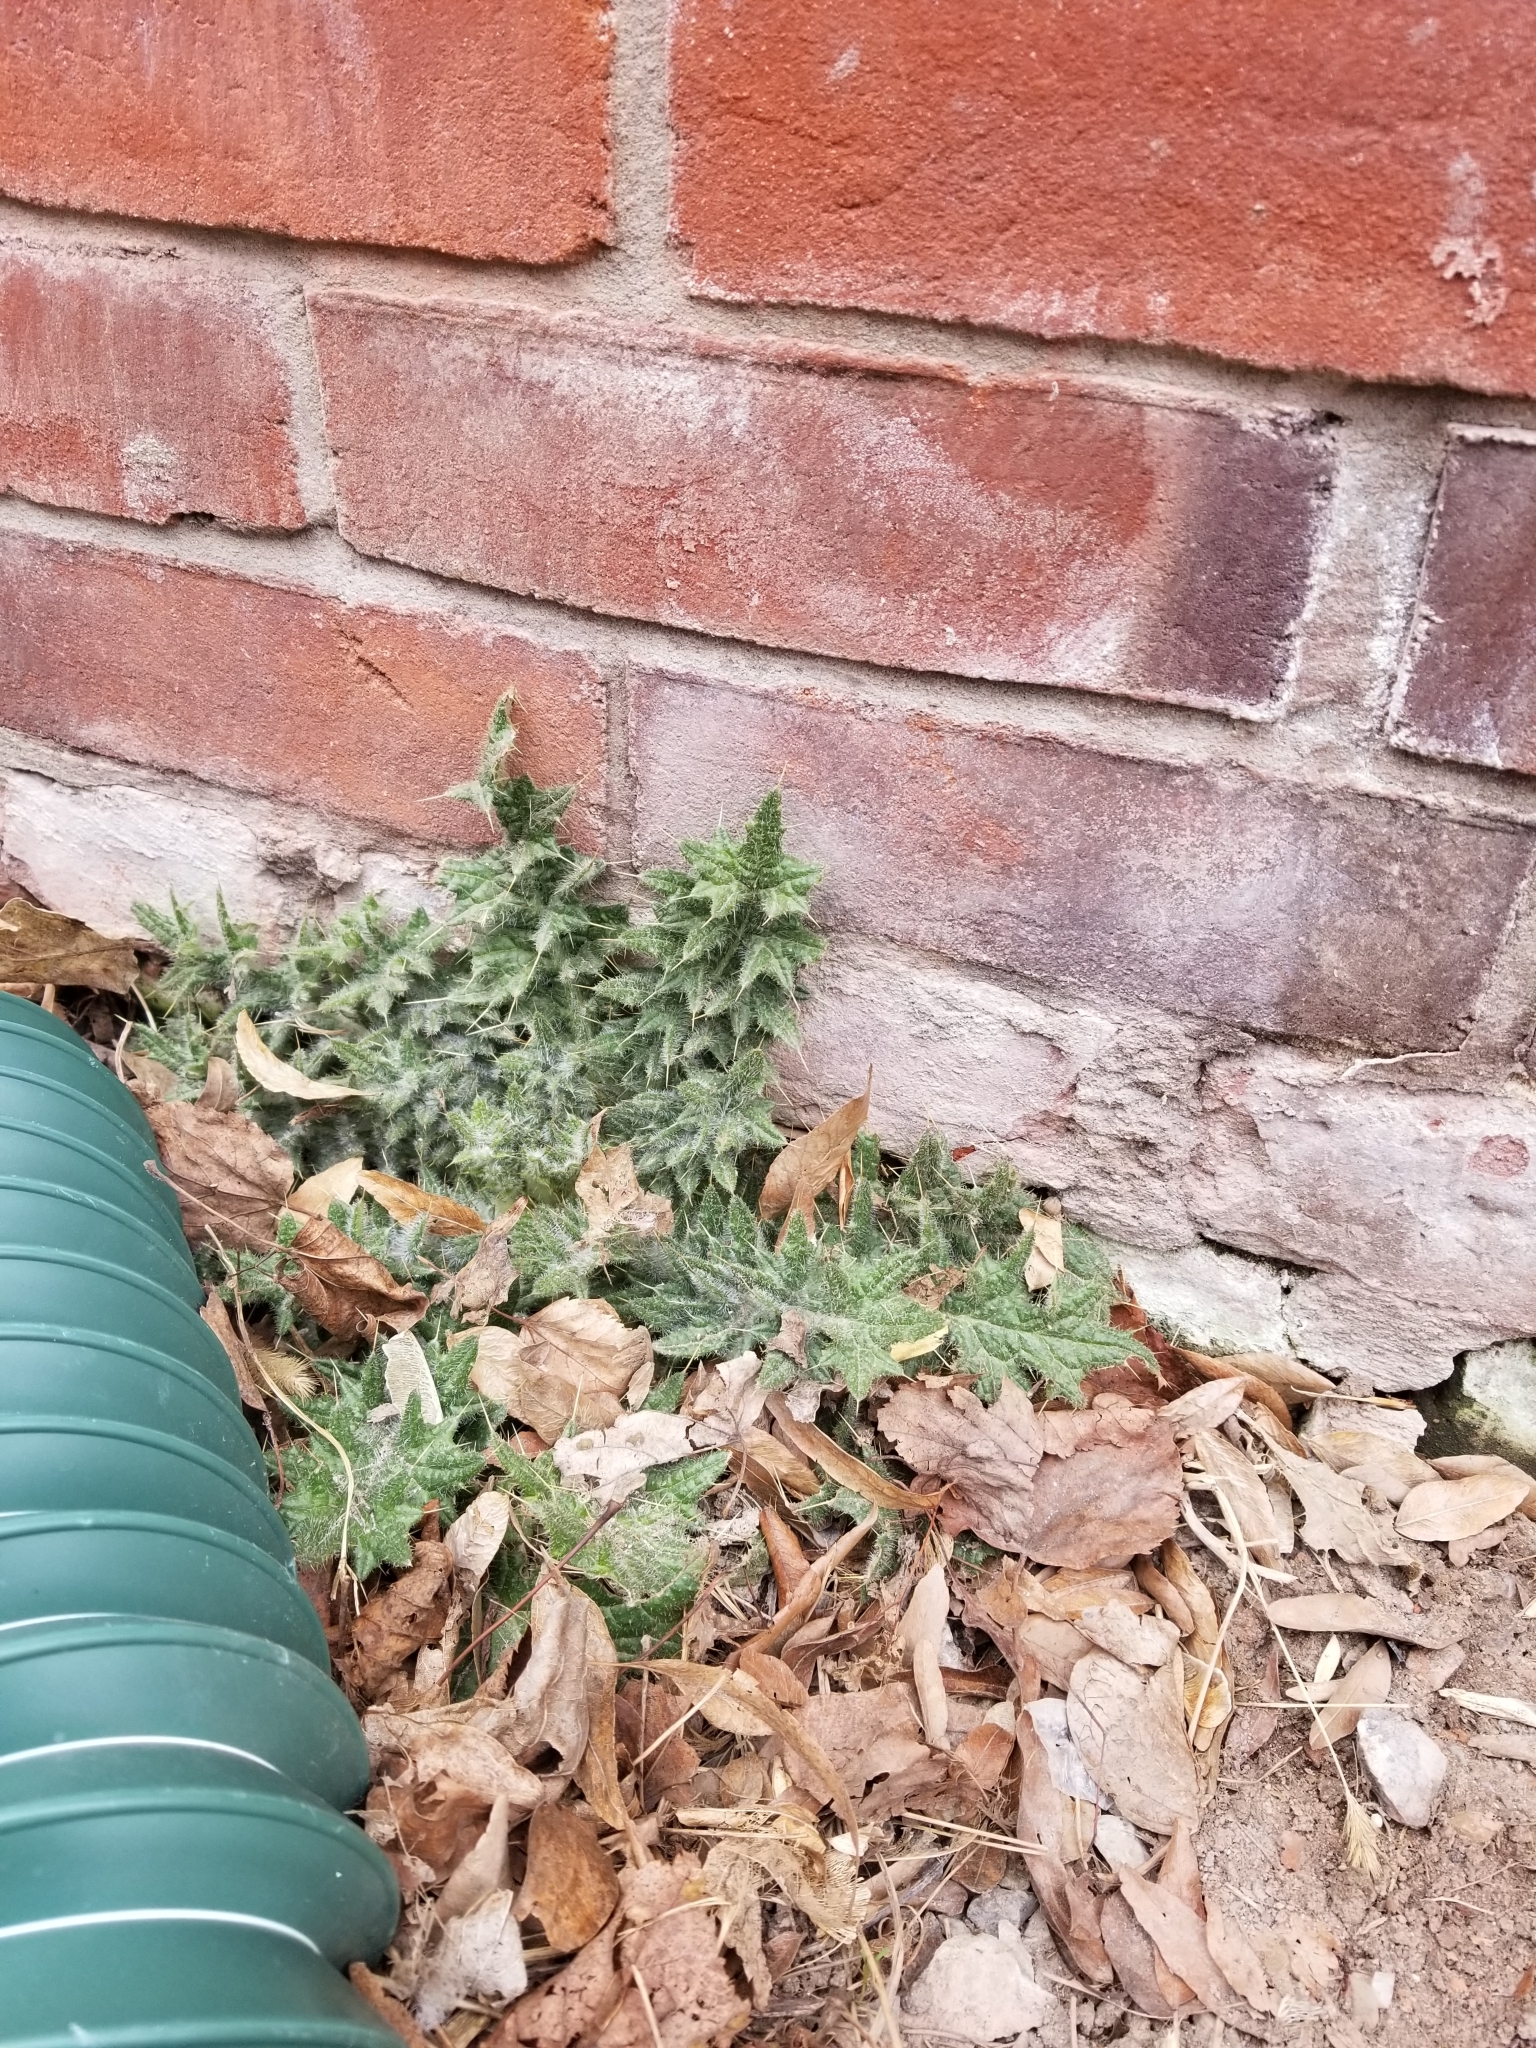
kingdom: Plantae
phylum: Tracheophyta
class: Magnoliopsida
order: Asterales
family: Asteraceae
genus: Cirsium
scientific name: Cirsium vulgare
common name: Bull thistle
